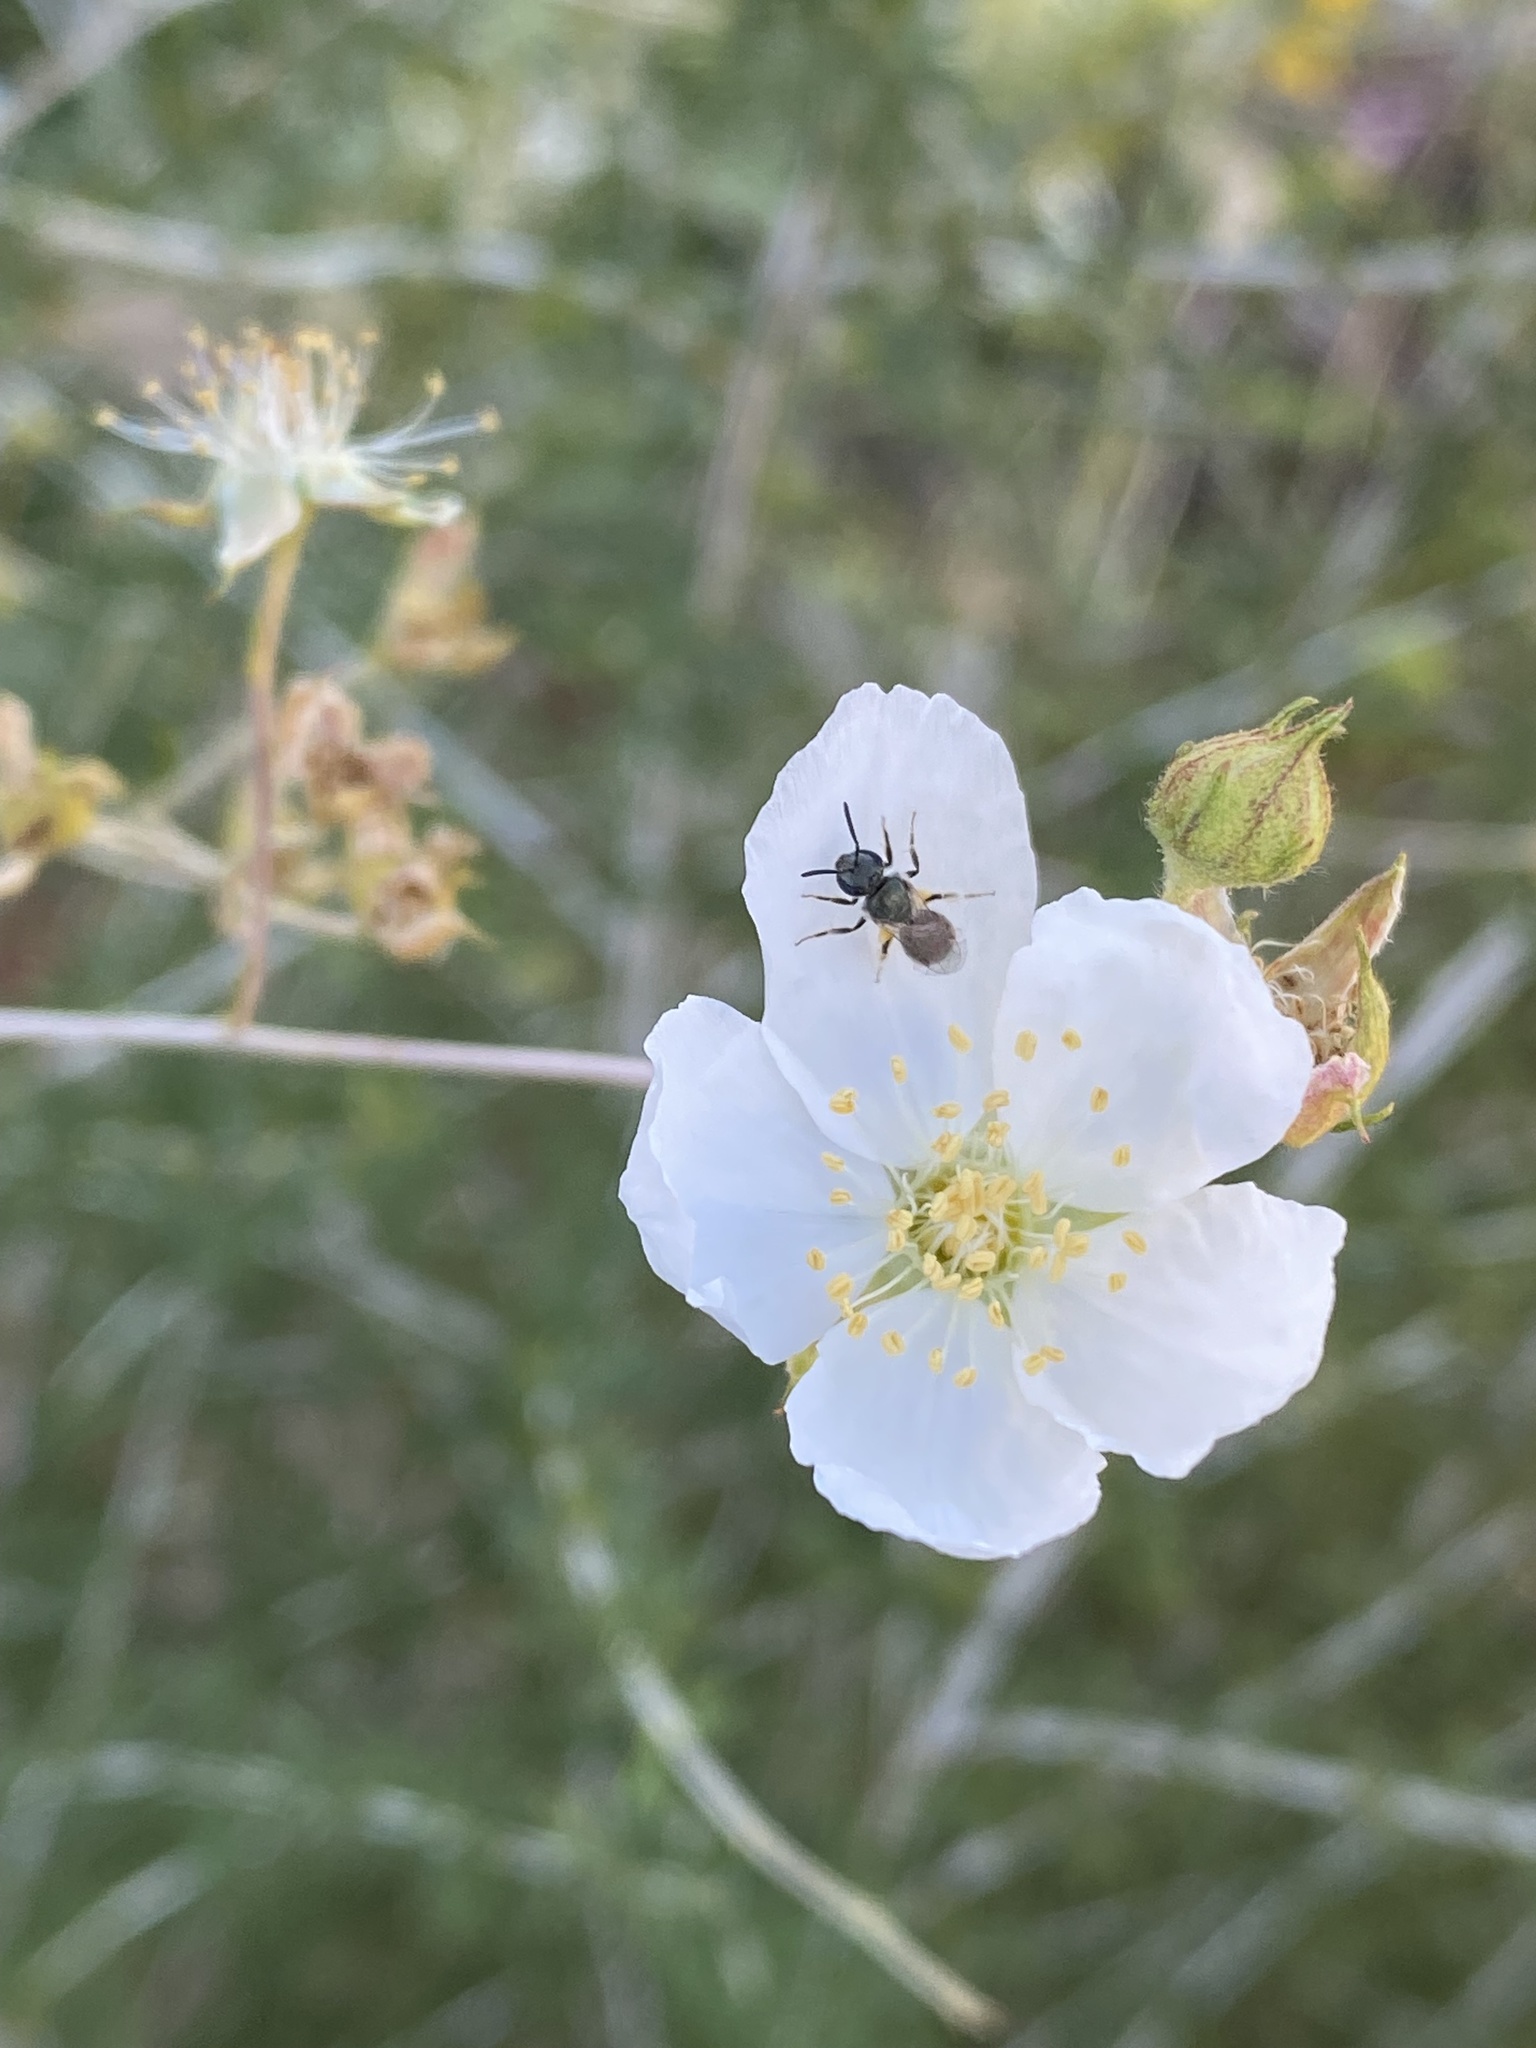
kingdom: Animalia
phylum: Arthropoda
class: Insecta
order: Hymenoptera
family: Halictidae
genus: Dialictus
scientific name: Dialictus
